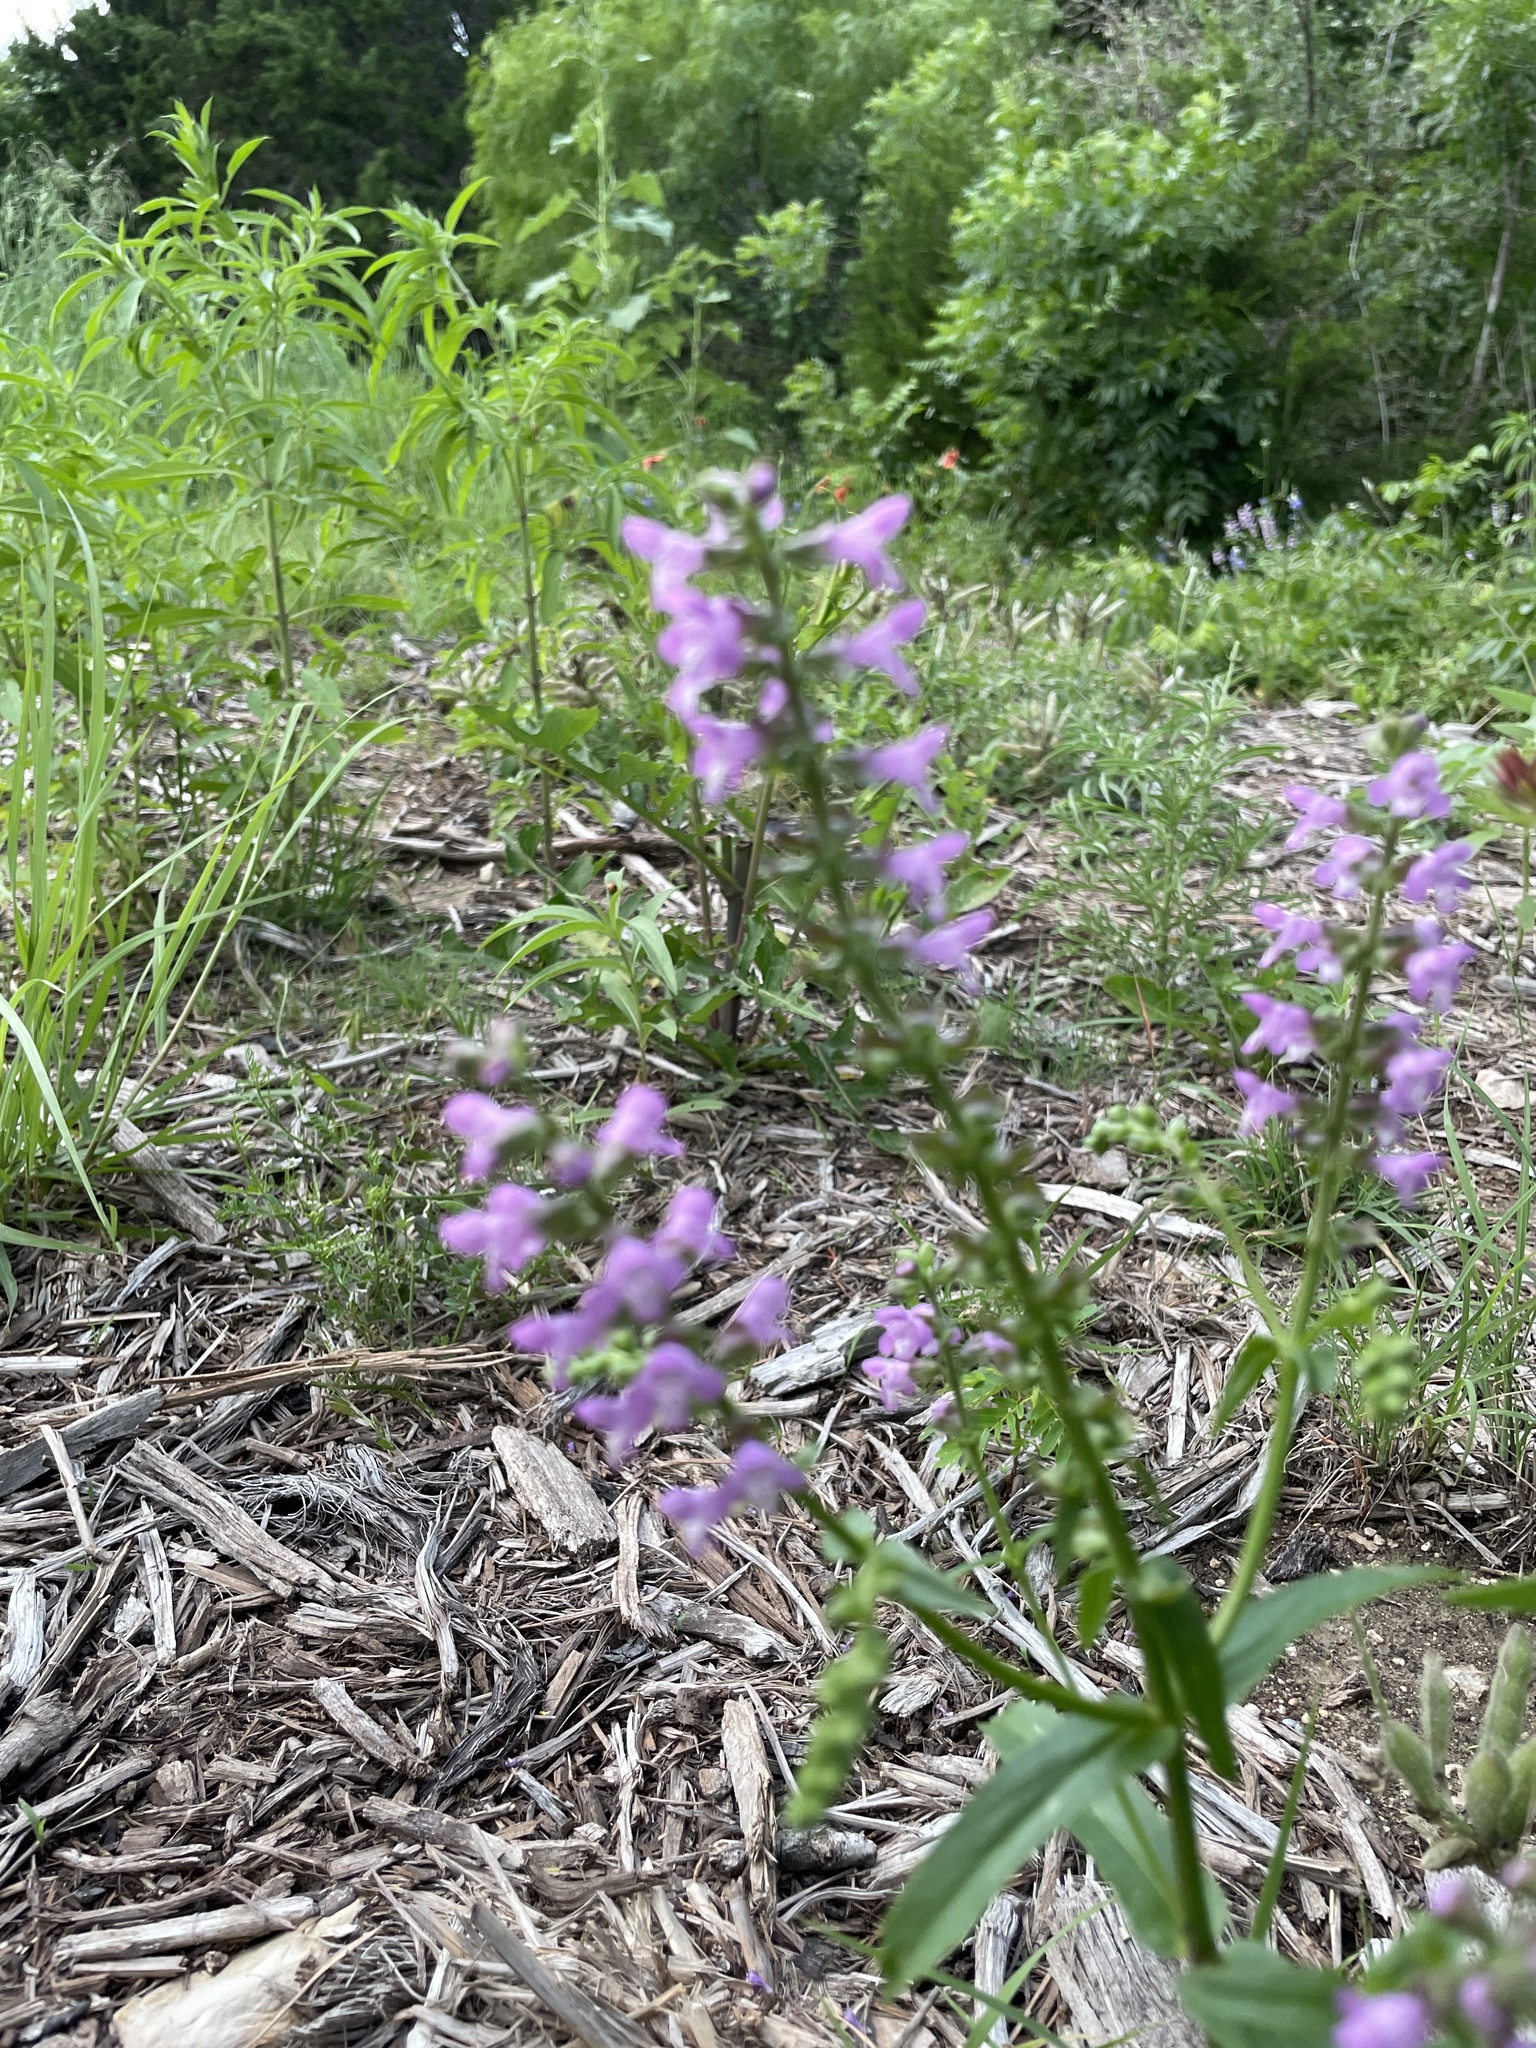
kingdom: Plantae
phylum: Tracheophyta
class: Magnoliopsida
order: Lamiales
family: Lamiaceae
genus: Warnockia
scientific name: Warnockia scutellarioides
